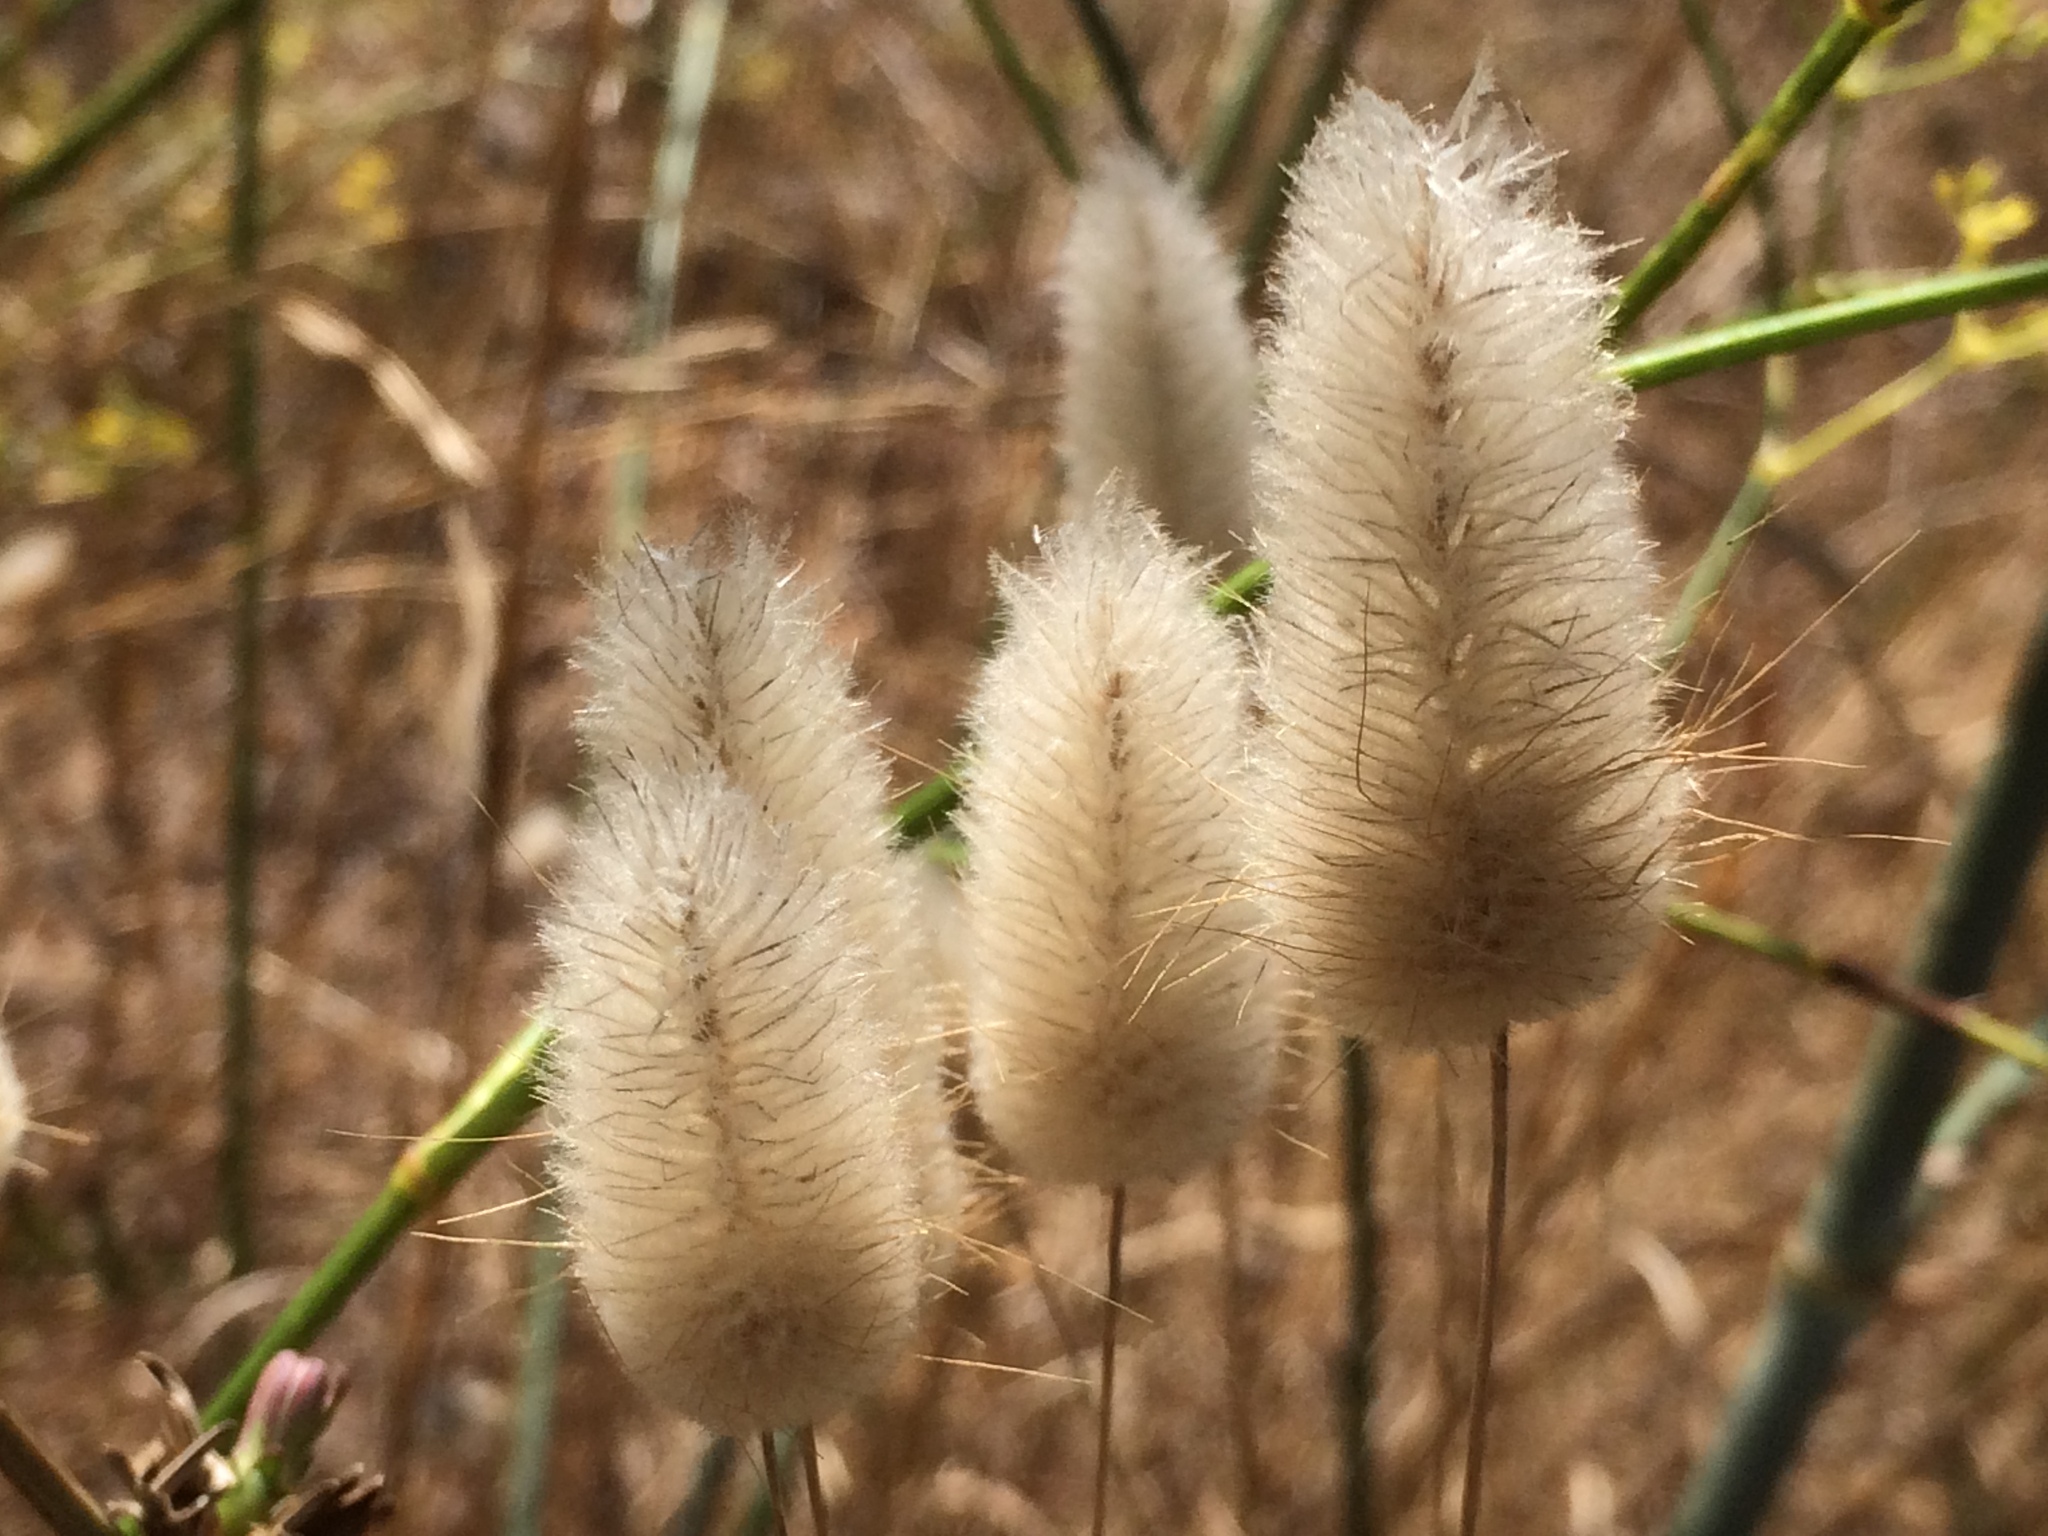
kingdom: Plantae
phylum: Tracheophyta
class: Liliopsida
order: Poales
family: Poaceae
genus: Lagurus
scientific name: Lagurus ovatus
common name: Hare's-tail
